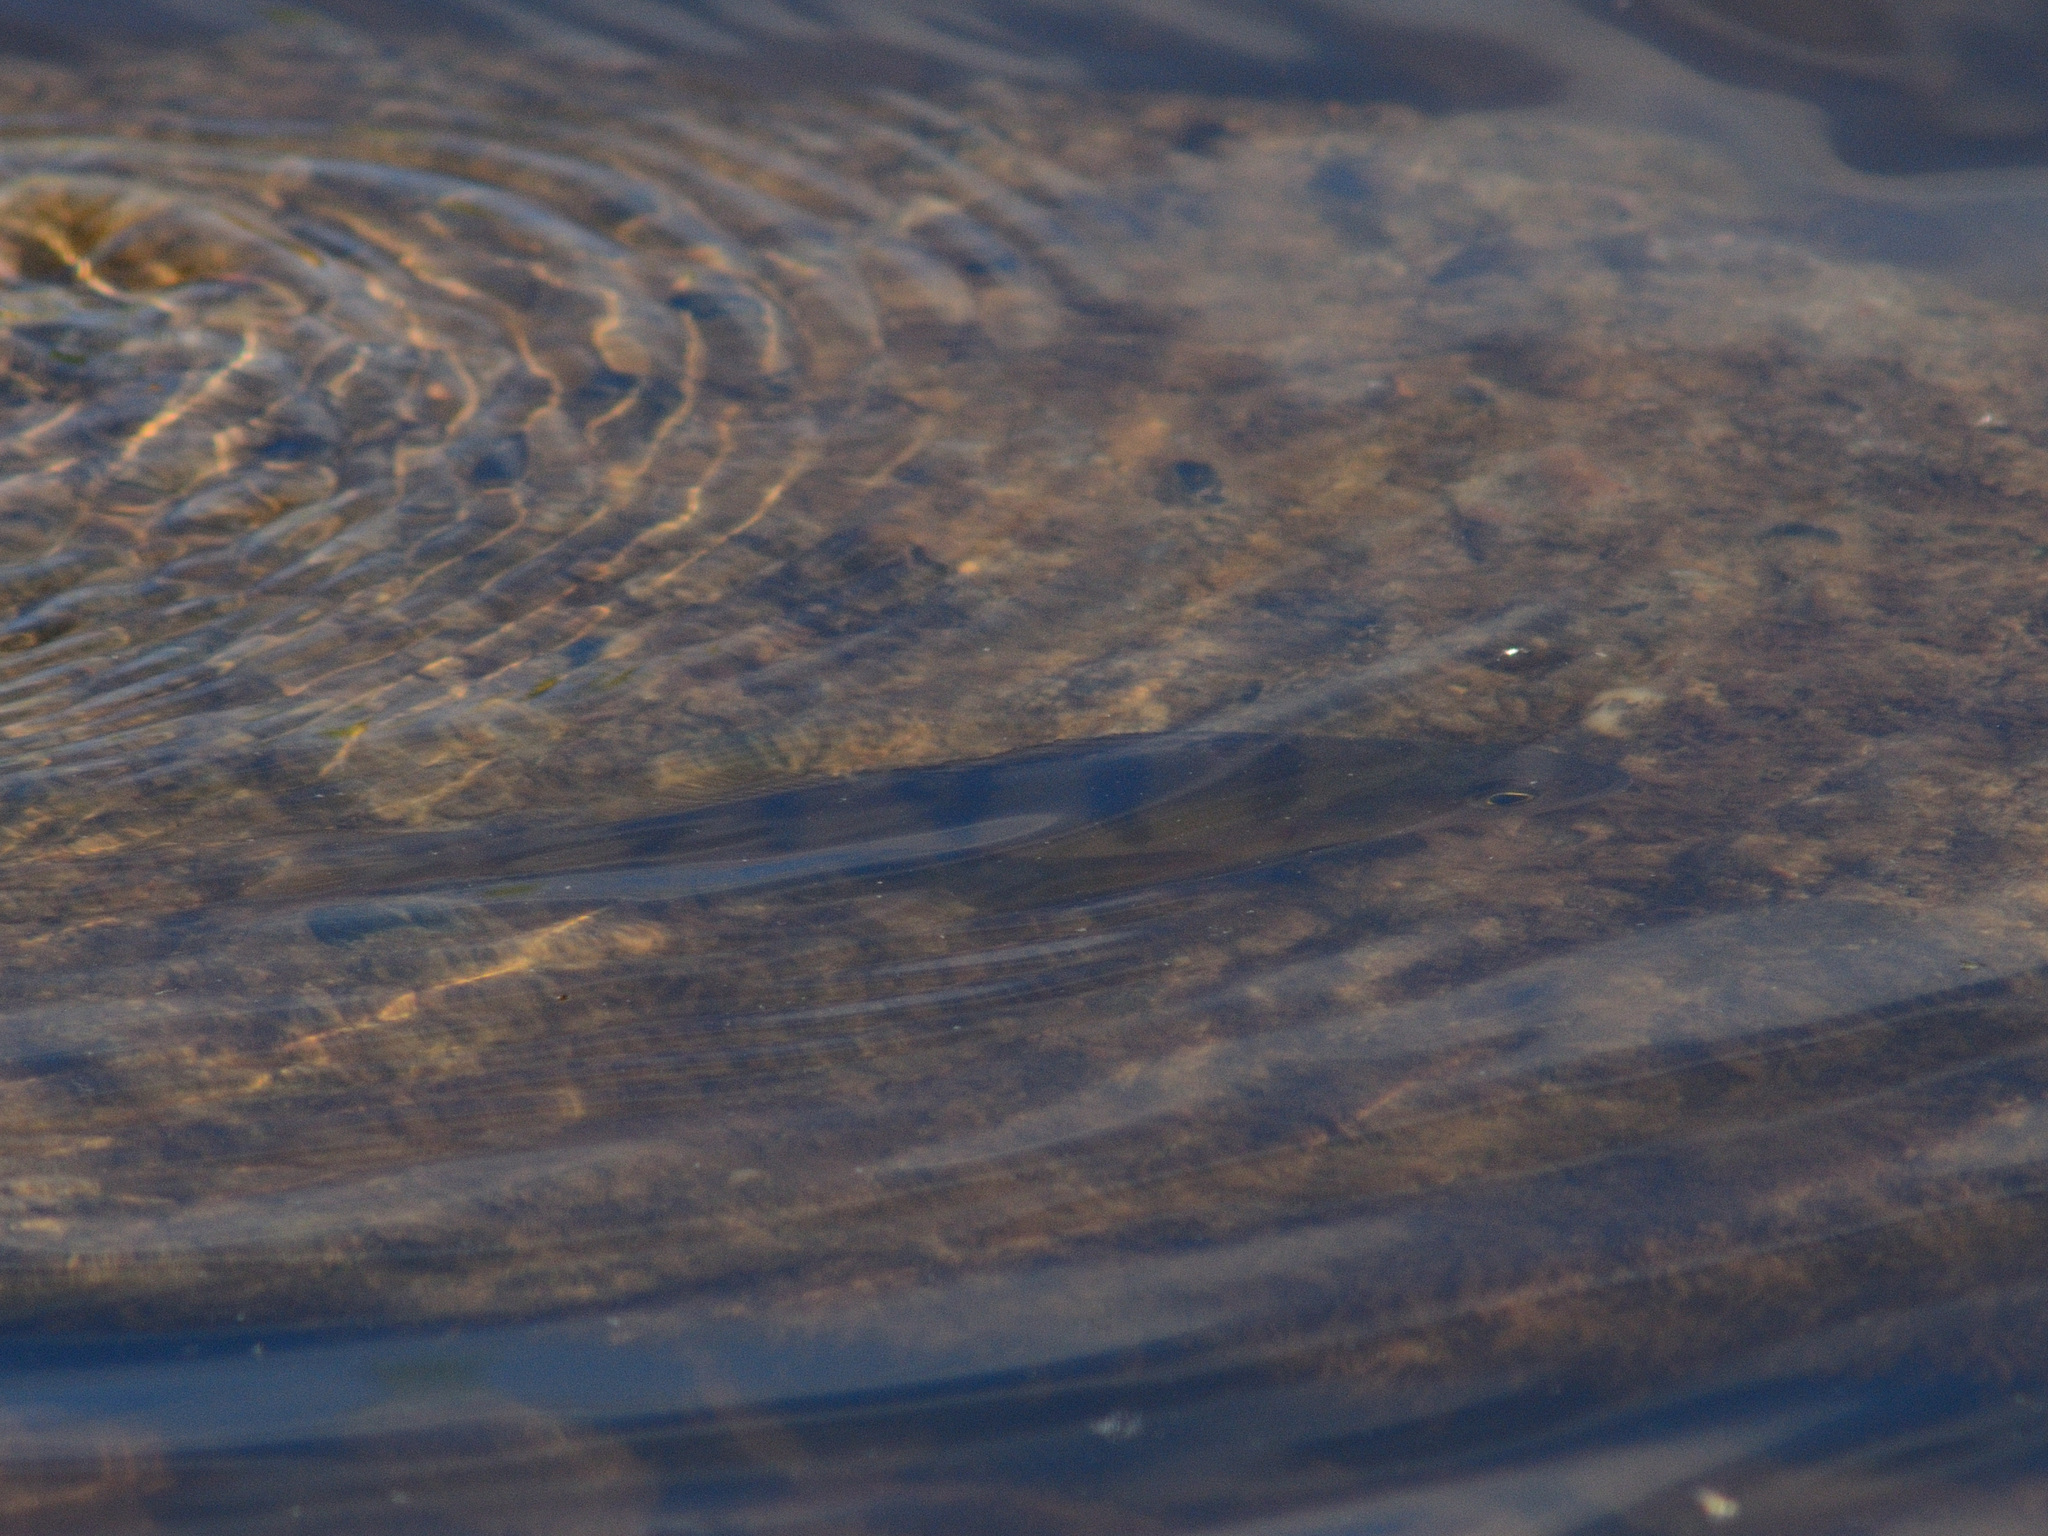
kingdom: Animalia
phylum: Chordata
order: Perciformes
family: Percidae
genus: Perca
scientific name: Perca fluviatilis
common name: Perch
